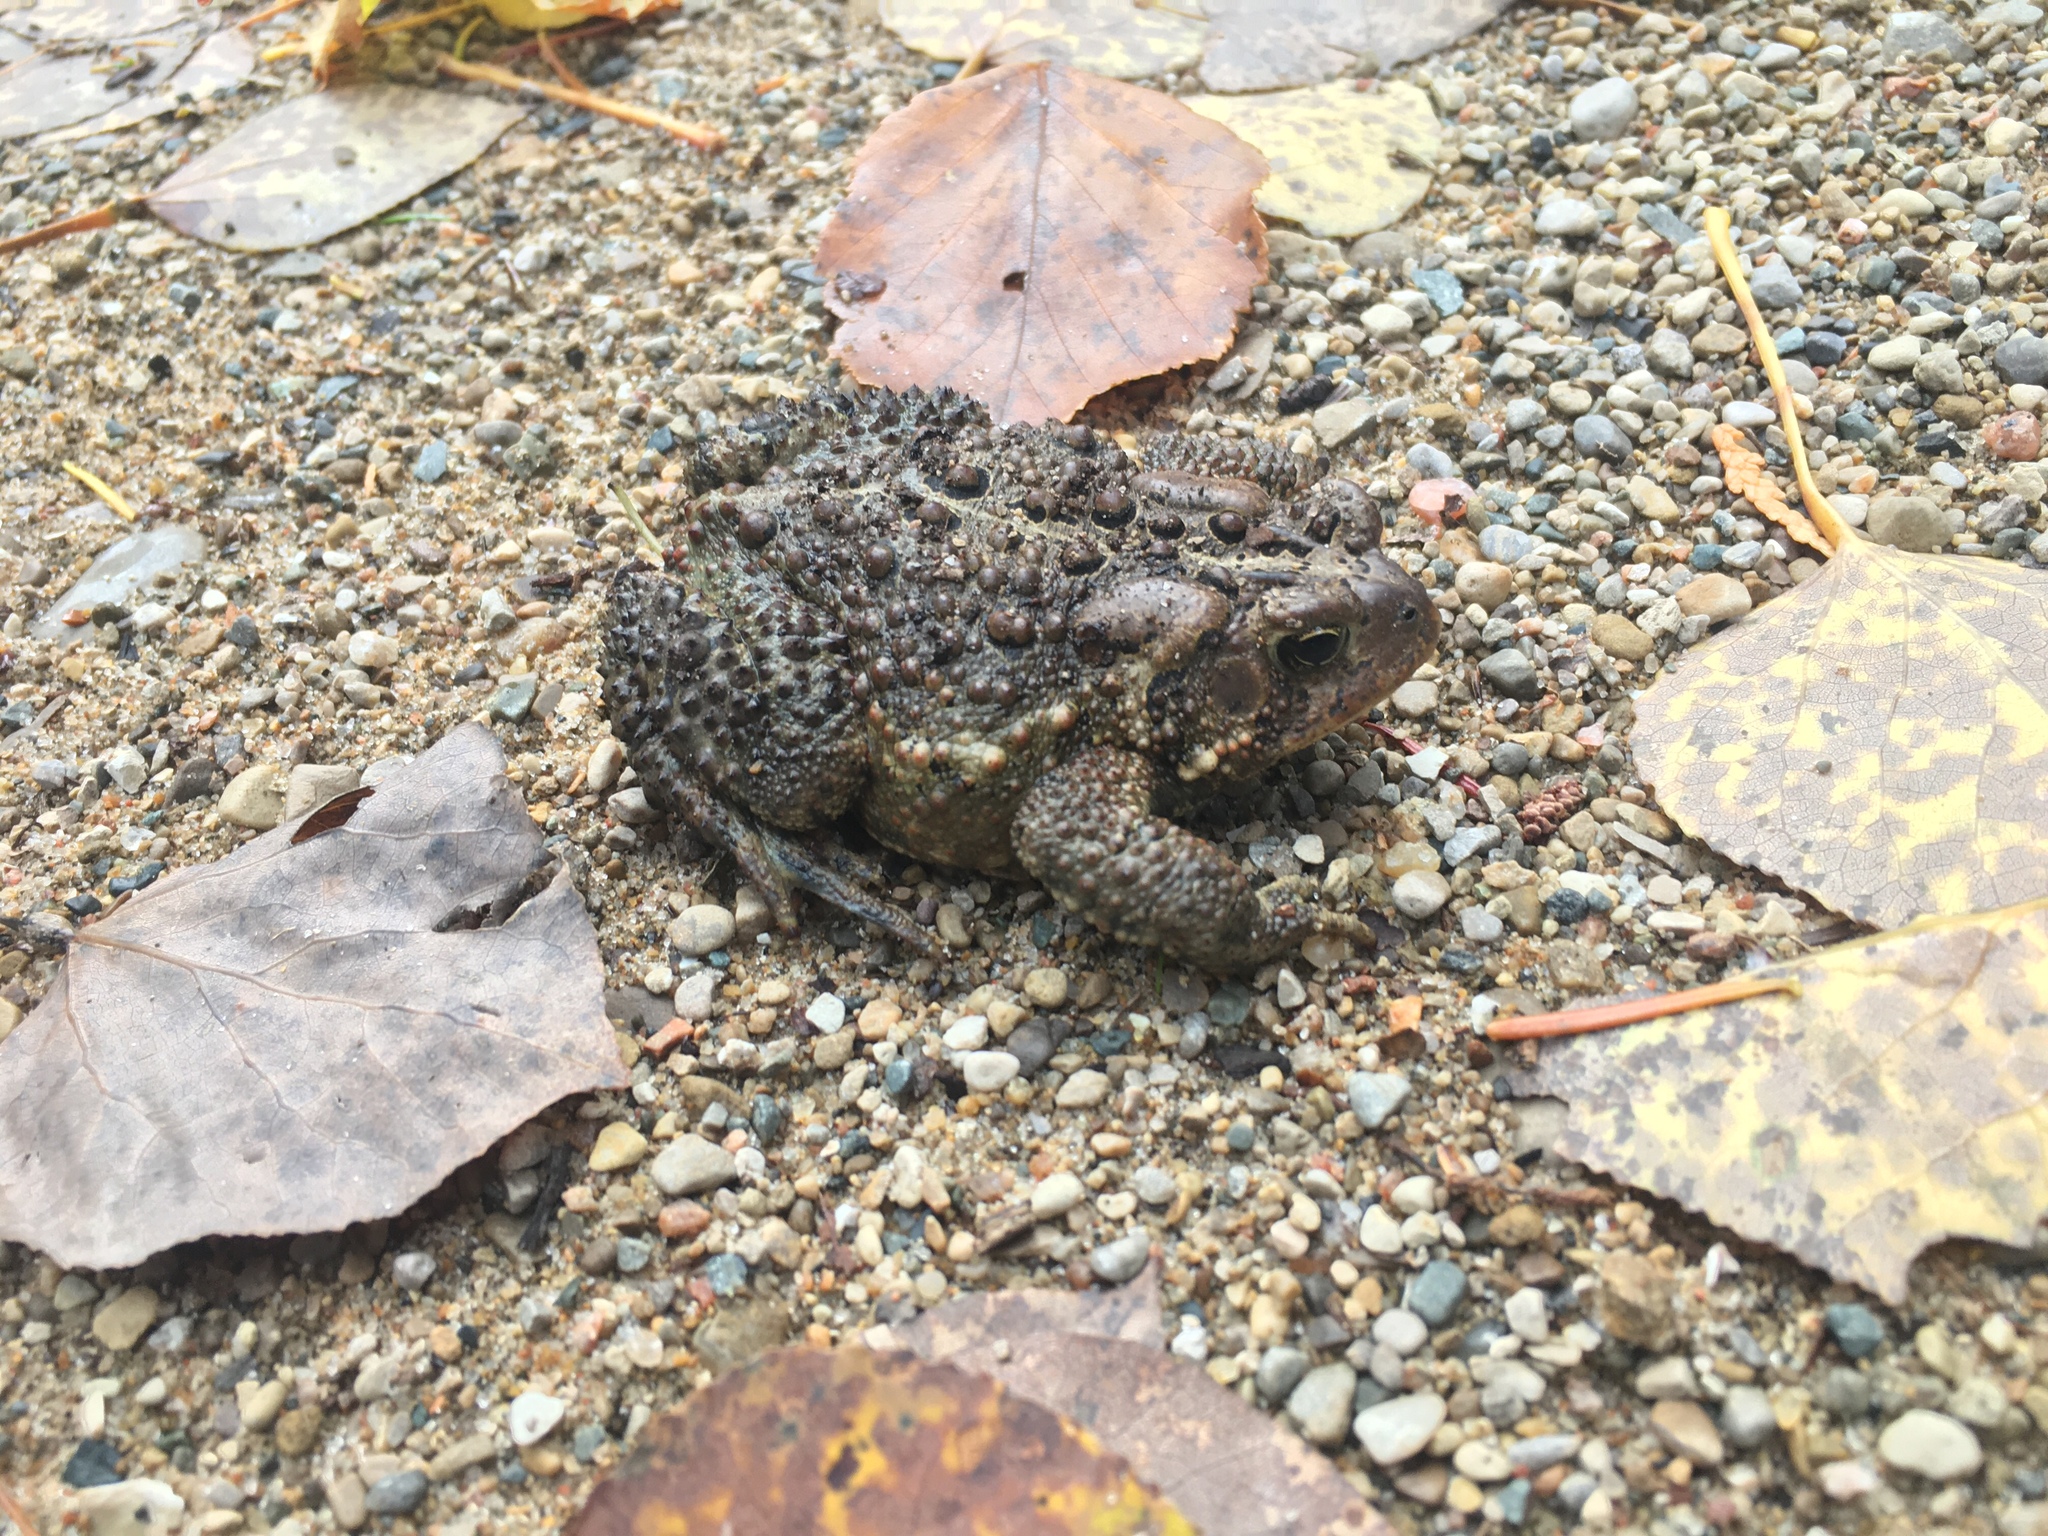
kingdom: Animalia
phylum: Chordata
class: Amphibia
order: Anura
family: Bufonidae
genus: Anaxyrus
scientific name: Anaxyrus americanus
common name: American toad
